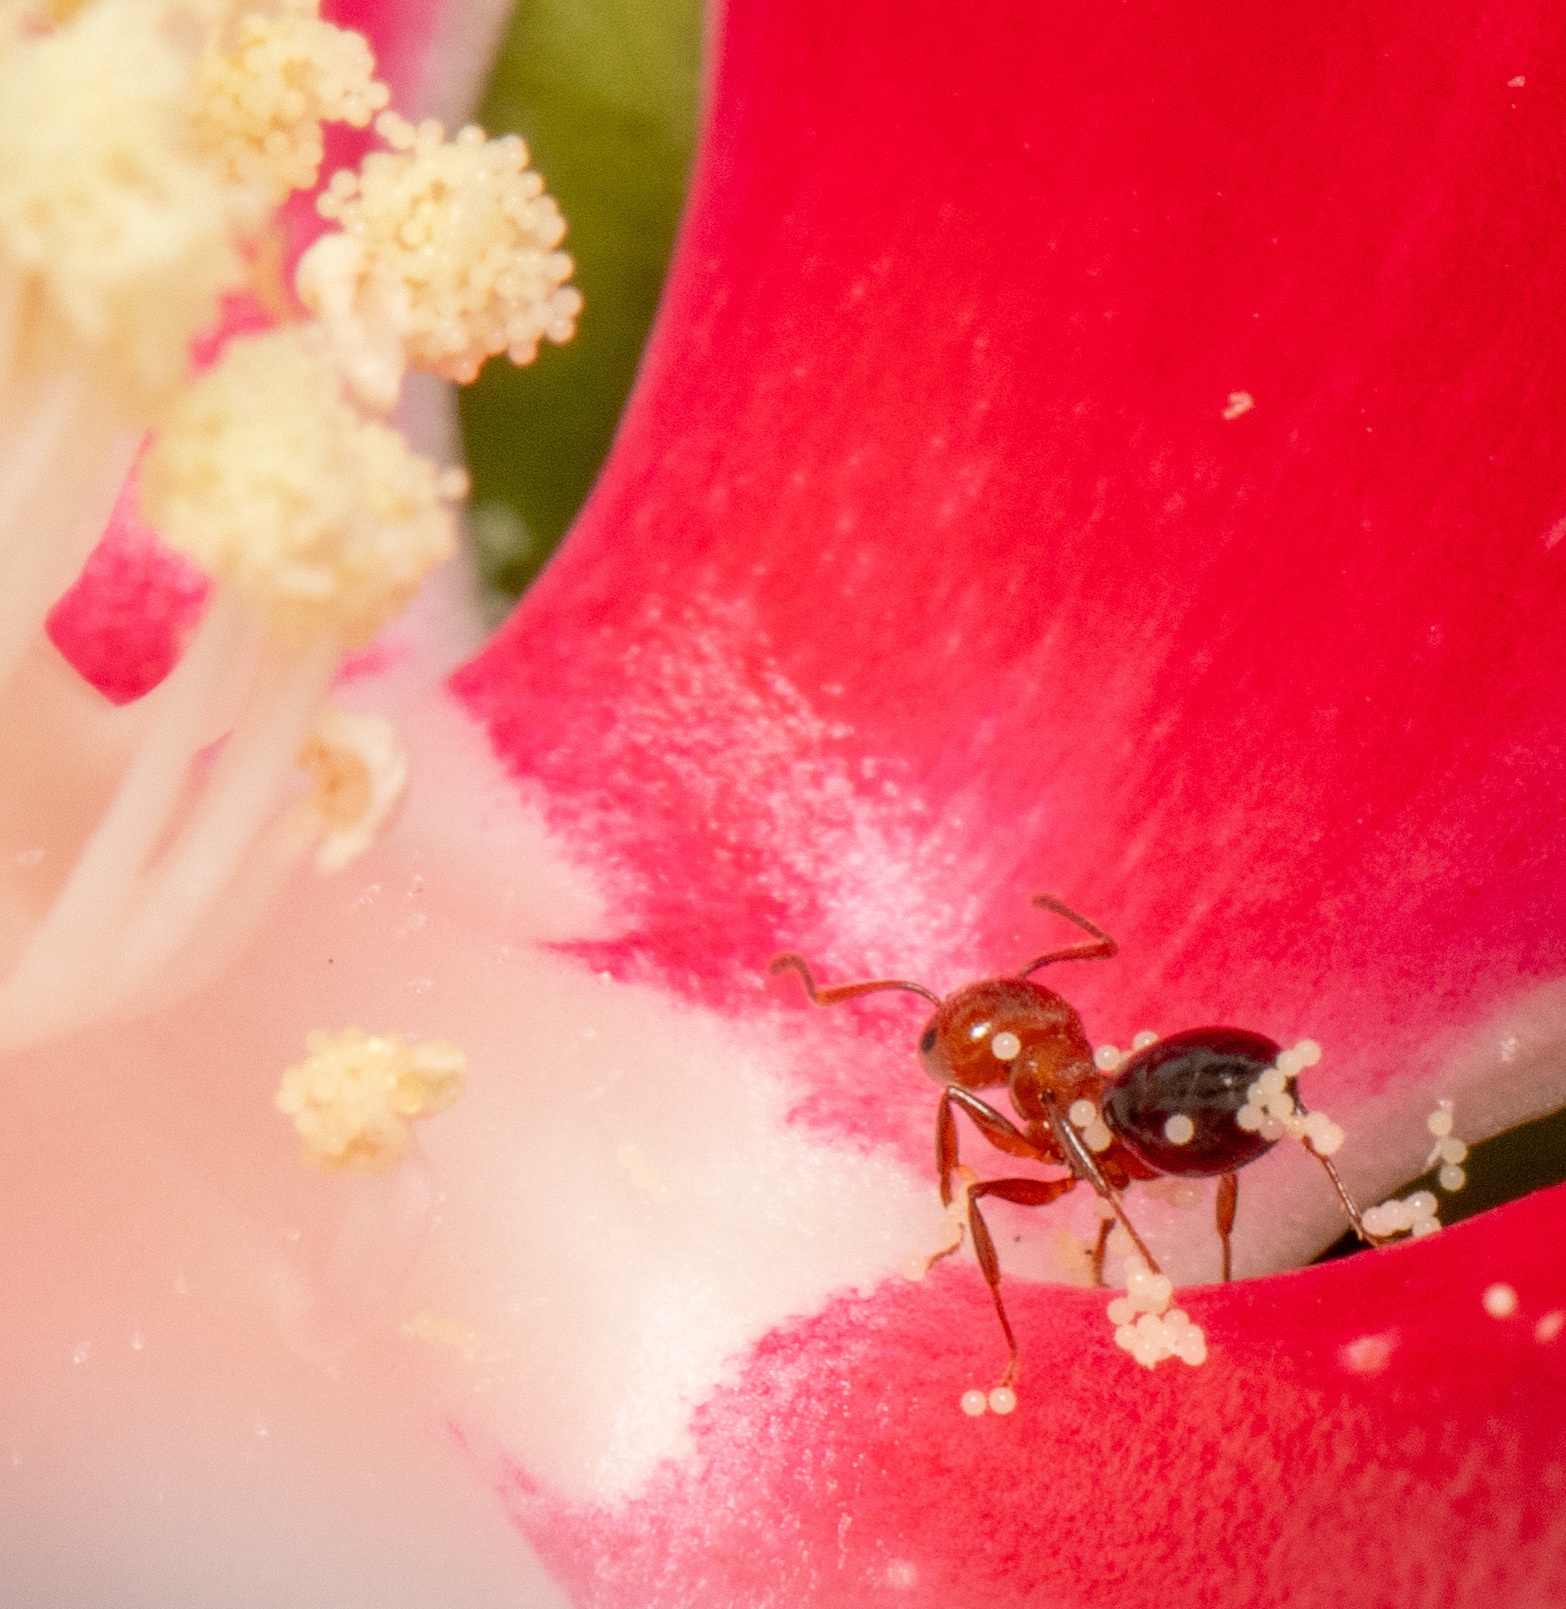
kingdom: Animalia
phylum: Arthropoda
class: Insecta
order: Hymenoptera
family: Formicidae
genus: Crematogaster
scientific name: Crematogaster laeviuscula
